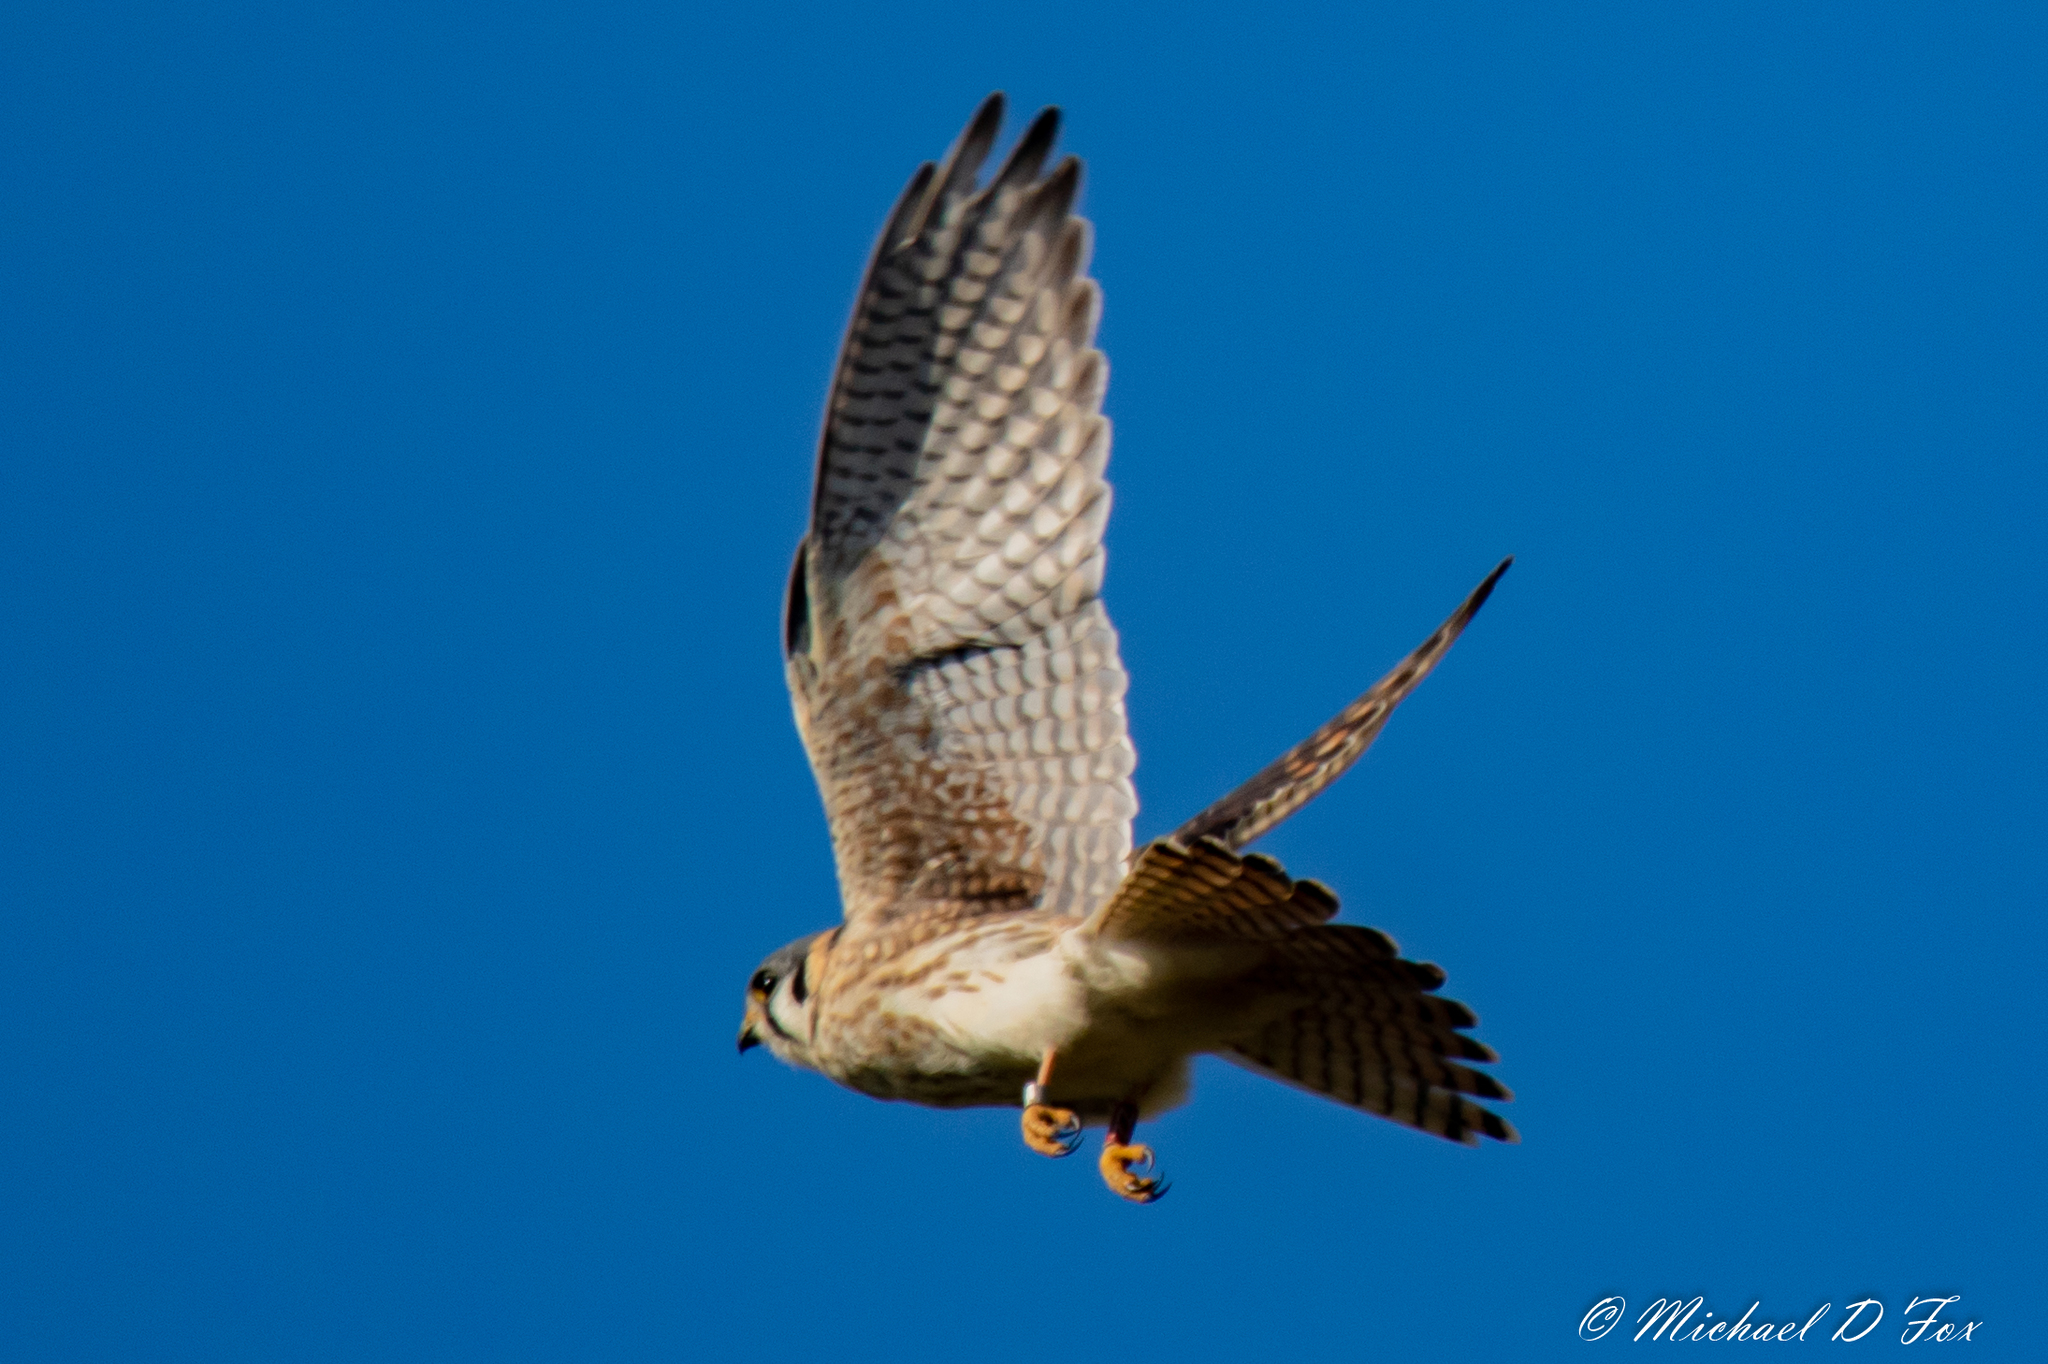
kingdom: Animalia
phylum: Chordata
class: Aves
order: Falconiformes
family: Falconidae
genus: Falco
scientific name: Falco sparverius
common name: American kestrel
